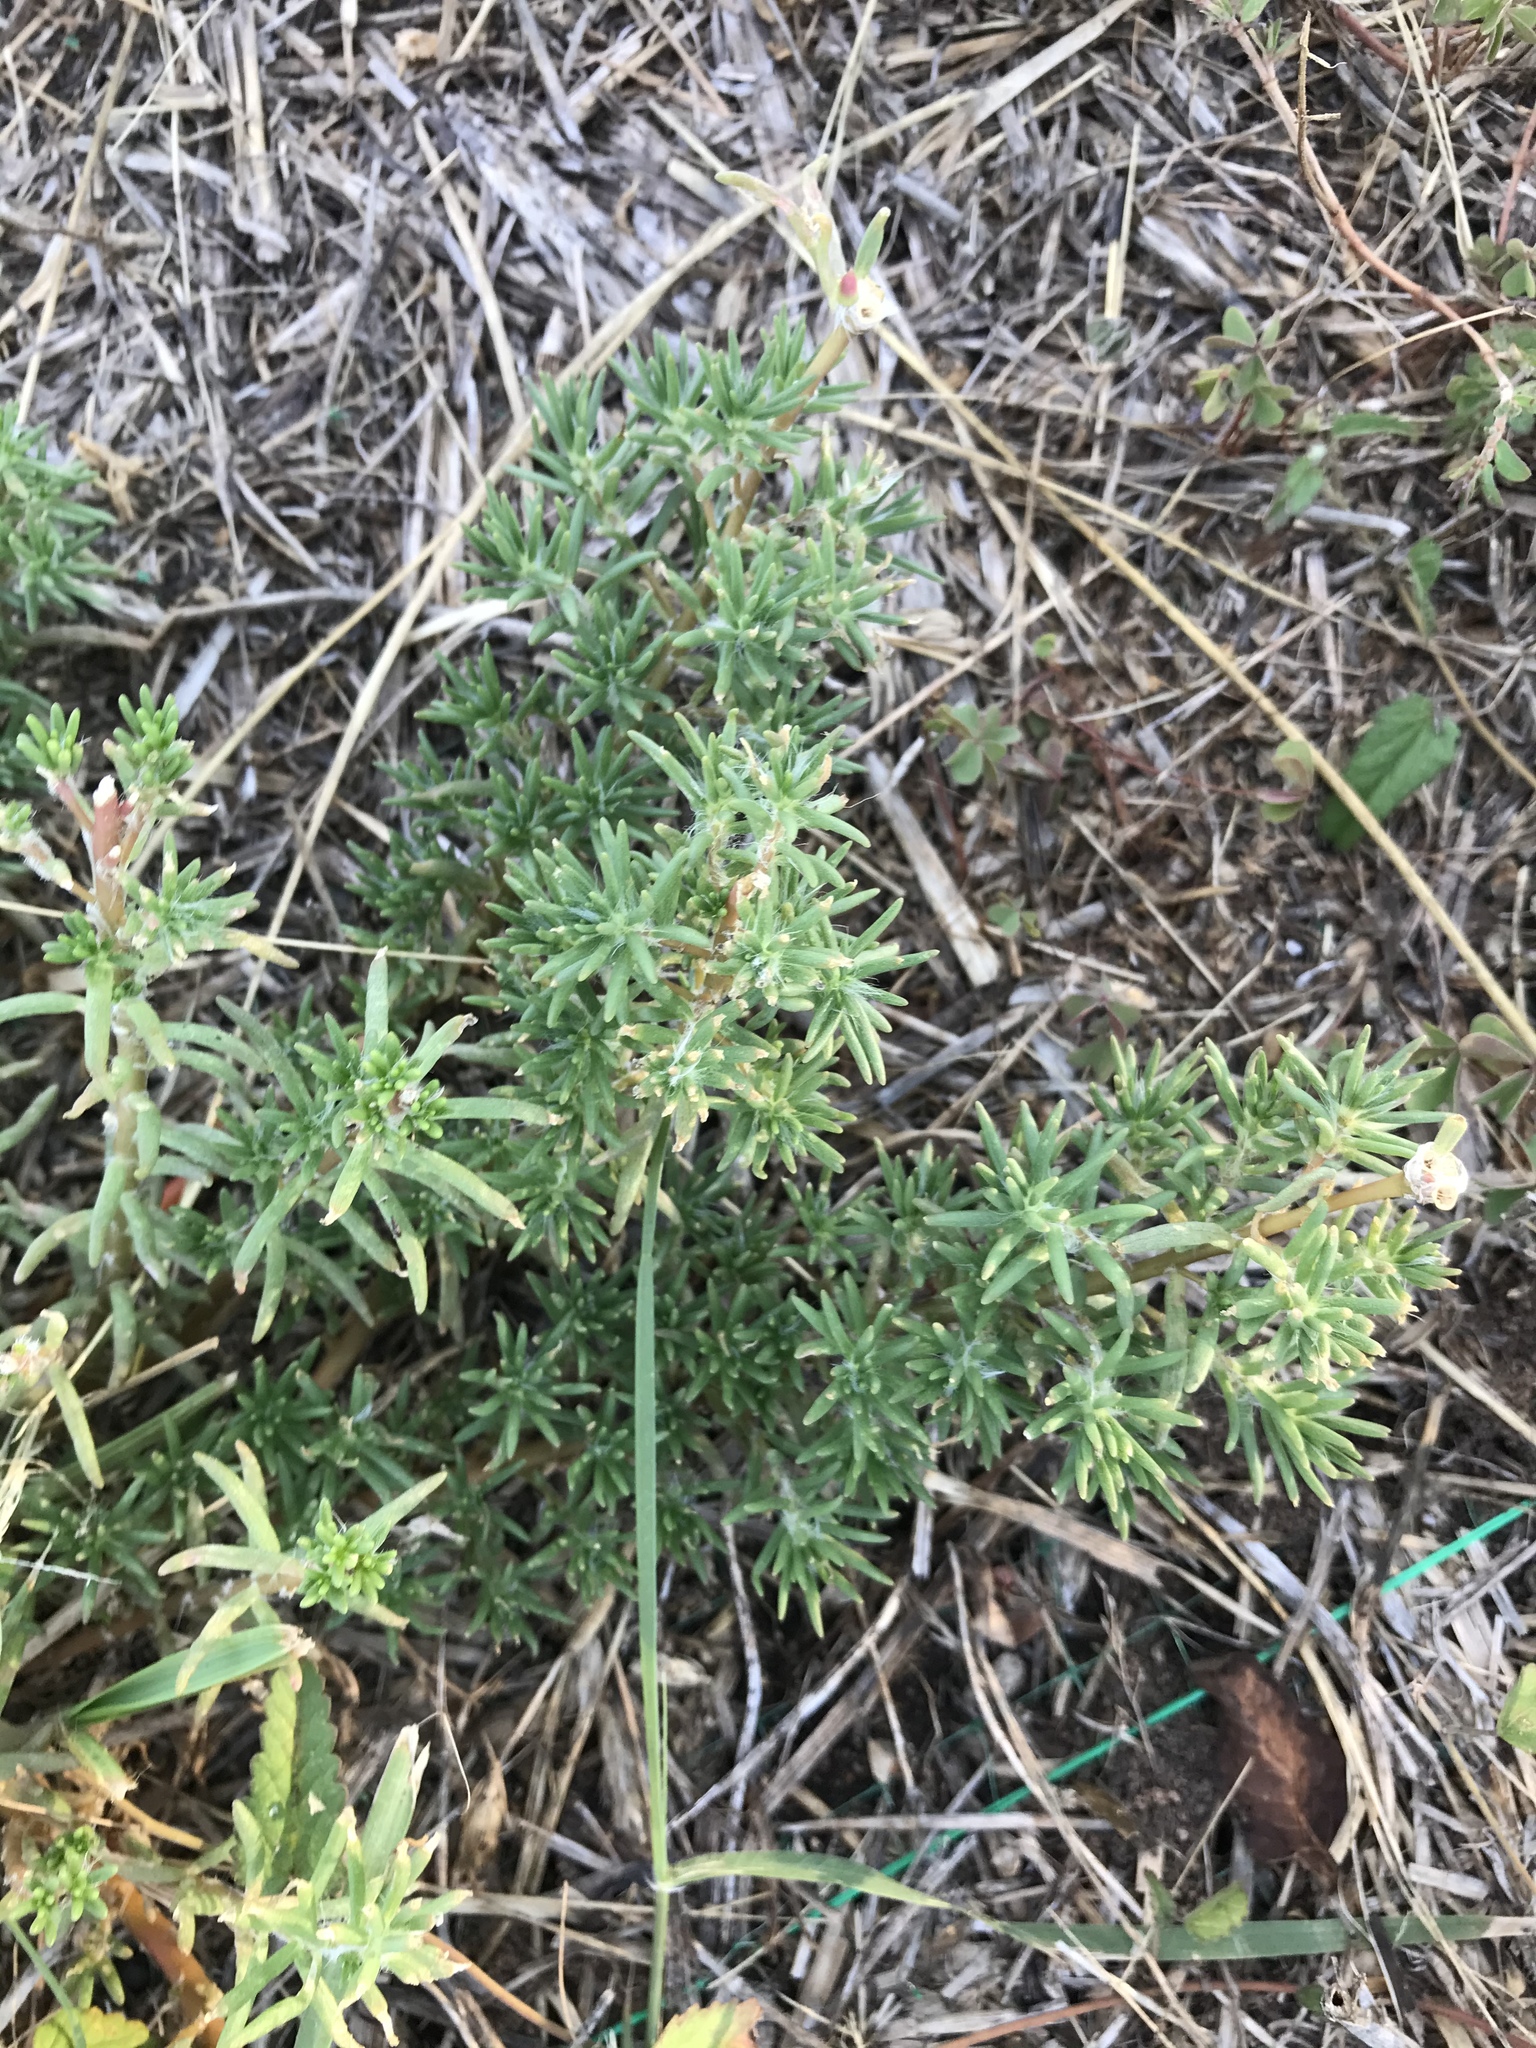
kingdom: Plantae
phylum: Tracheophyta
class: Magnoliopsida
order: Caryophyllales
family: Portulacaceae
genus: Portulaca
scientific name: Portulaca pilosa
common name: Kiss me quick
